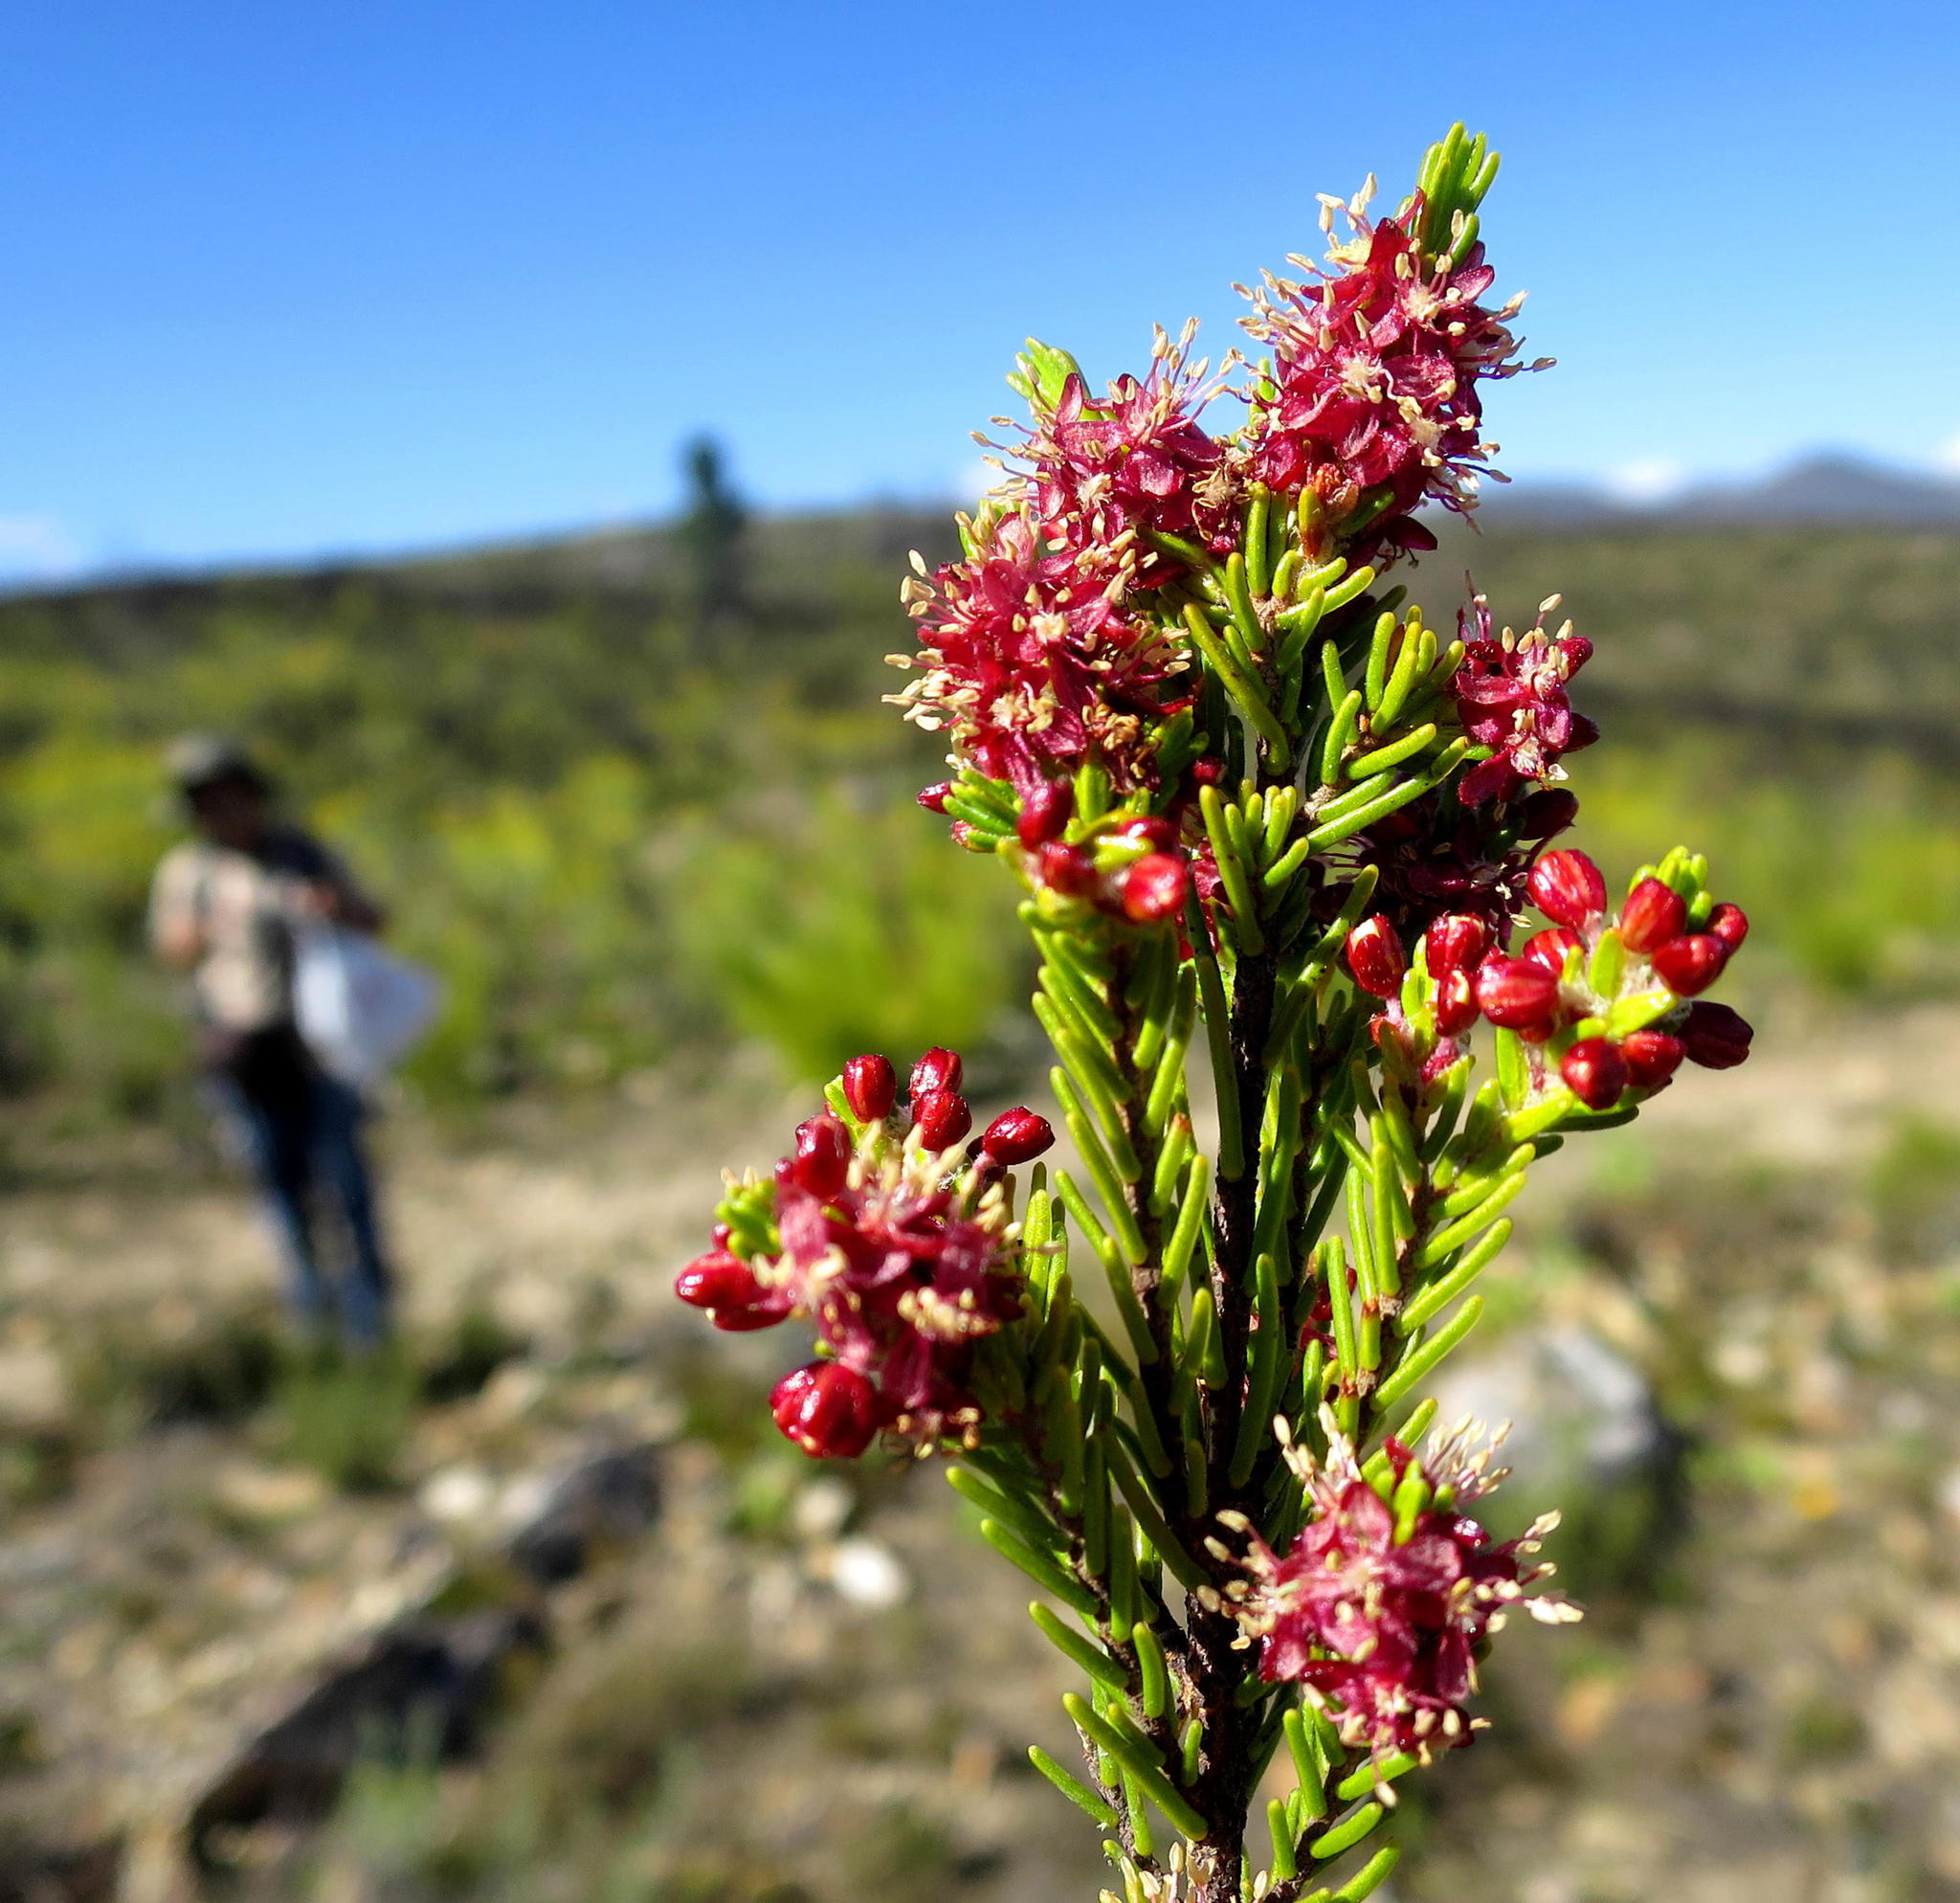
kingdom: Plantae
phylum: Tracheophyta
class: Magnoliopsida
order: Malvales
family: Thymelaeaceae
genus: Passerina
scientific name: Passerina obtusifolia
